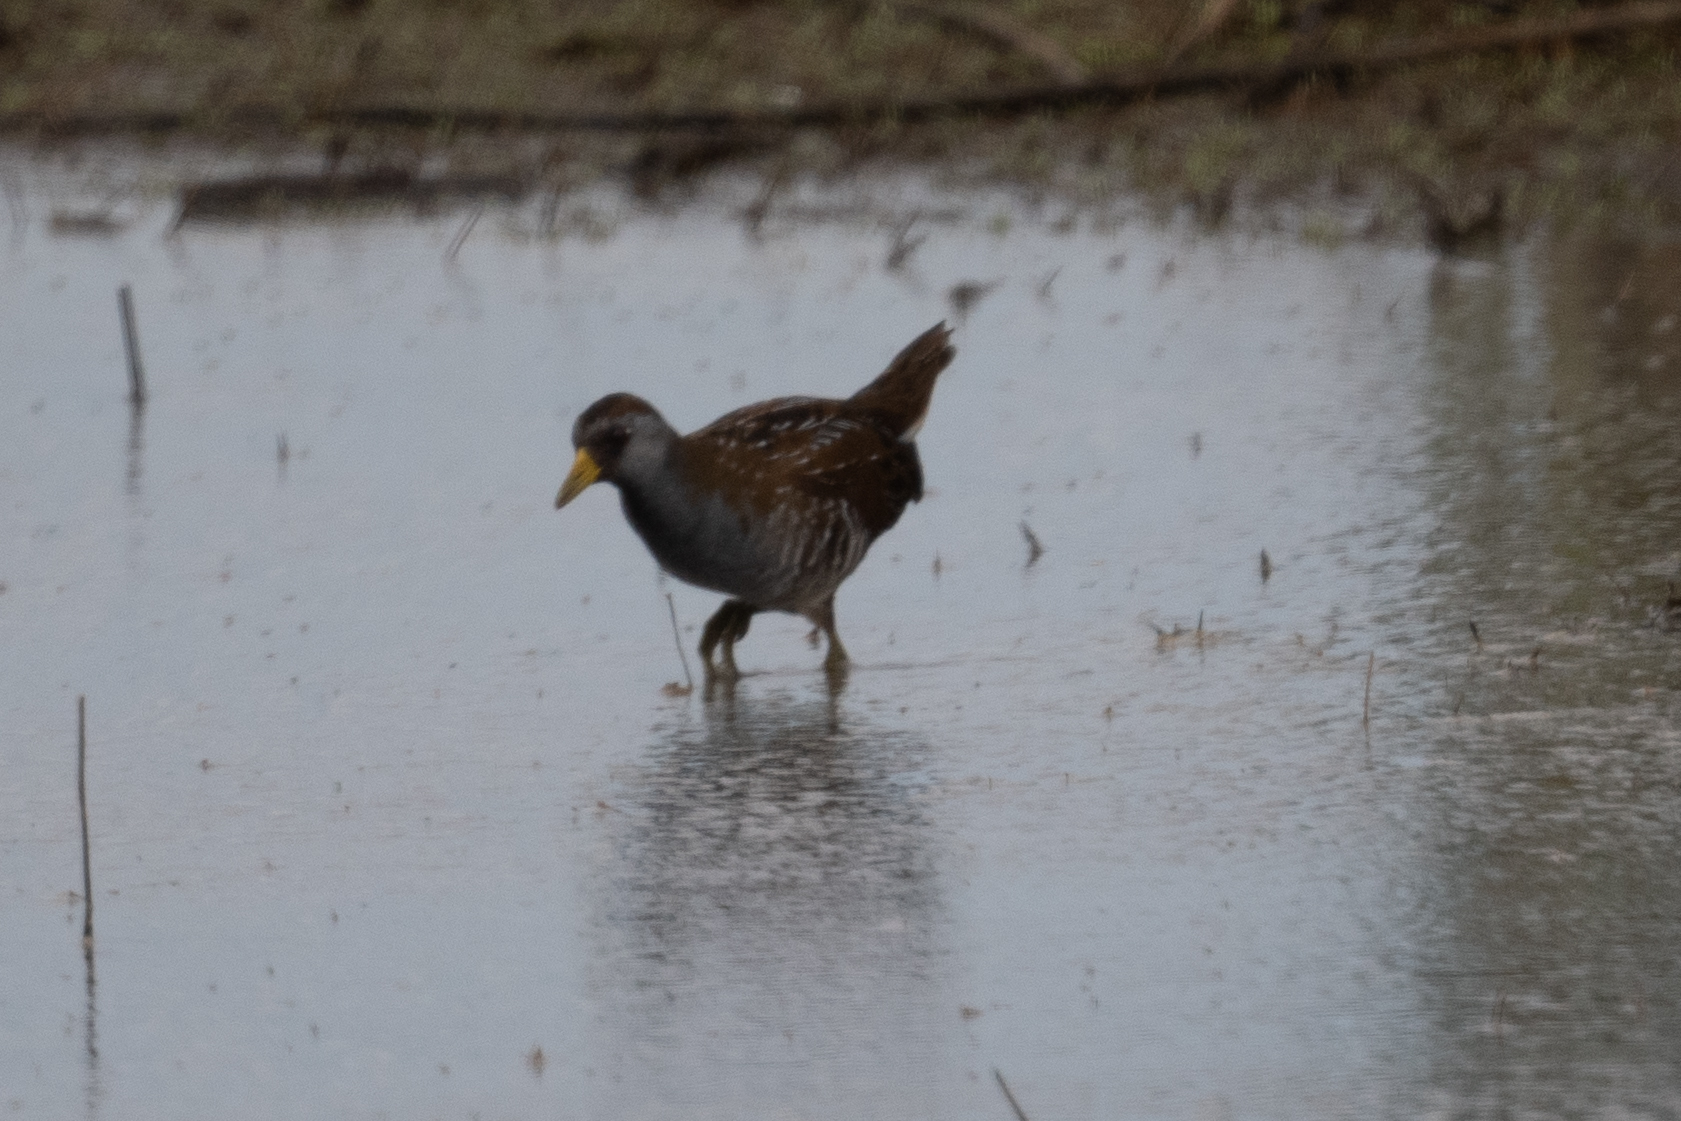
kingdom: Animalia
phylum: Chordata
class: Aves
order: Gruiformes
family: Rallidae
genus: Porzana
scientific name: Porzana carolina
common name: Sora
